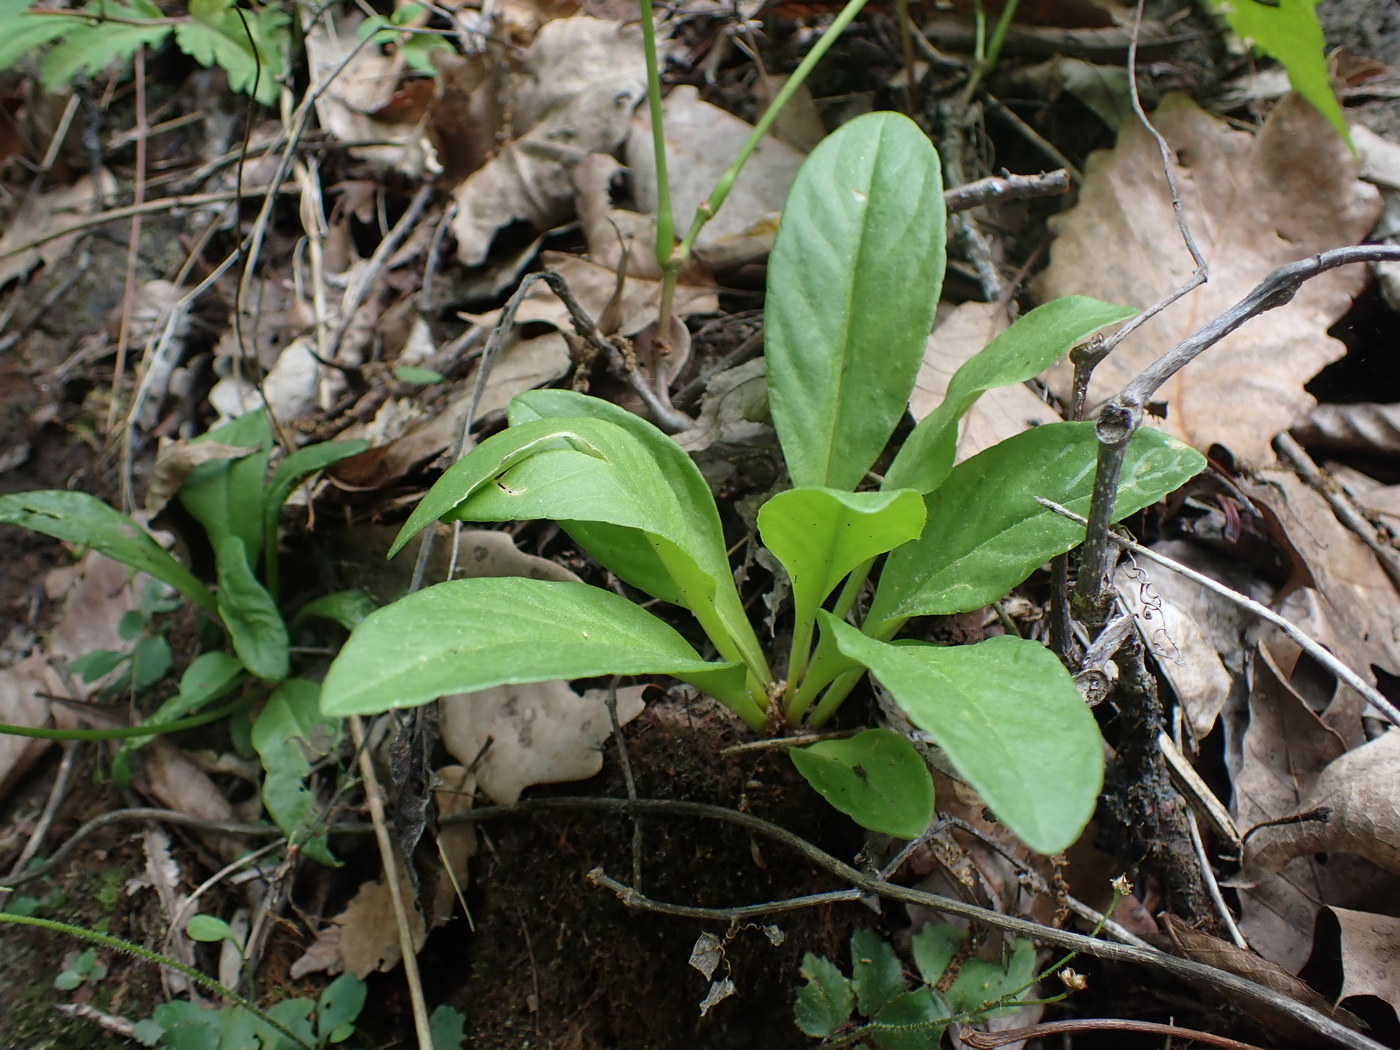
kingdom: Plantae
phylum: Tracheophyta
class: Magnoliopsida
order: Ericales
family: Primulaceae
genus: Dodecatheon
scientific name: Dodecatheon meadia
